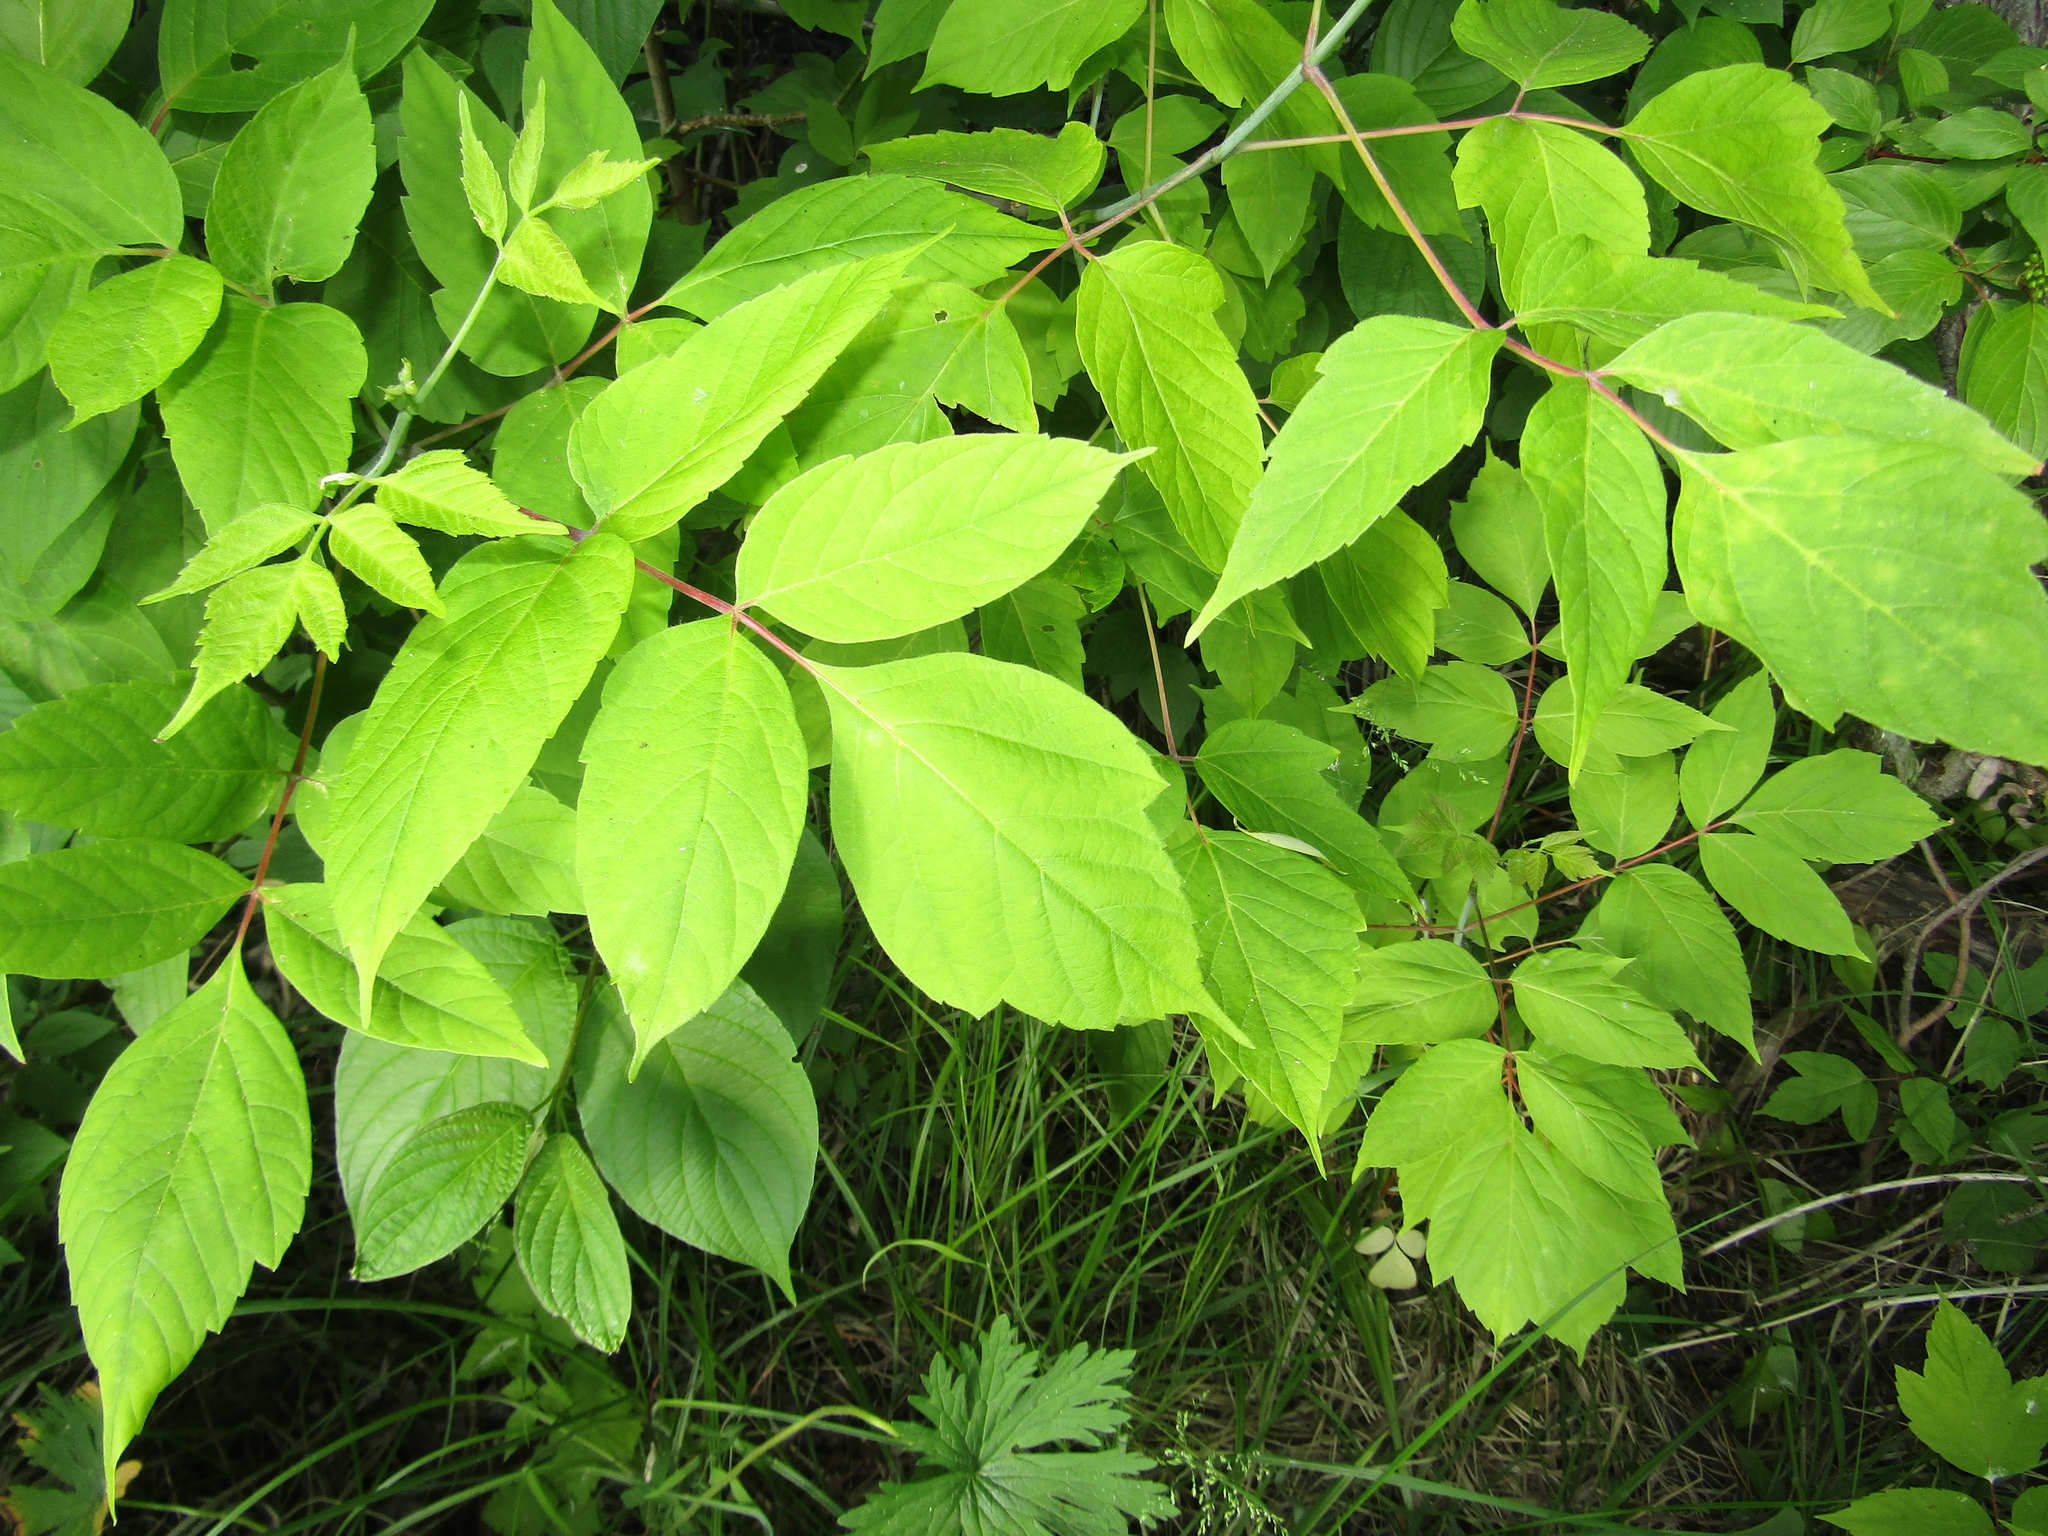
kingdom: Plantae
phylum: Tracheophyta
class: Magnoliopsida
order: Sapindales
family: Sapindaceae
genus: Acer
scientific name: Acer negundo
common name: Ashleaf maple
